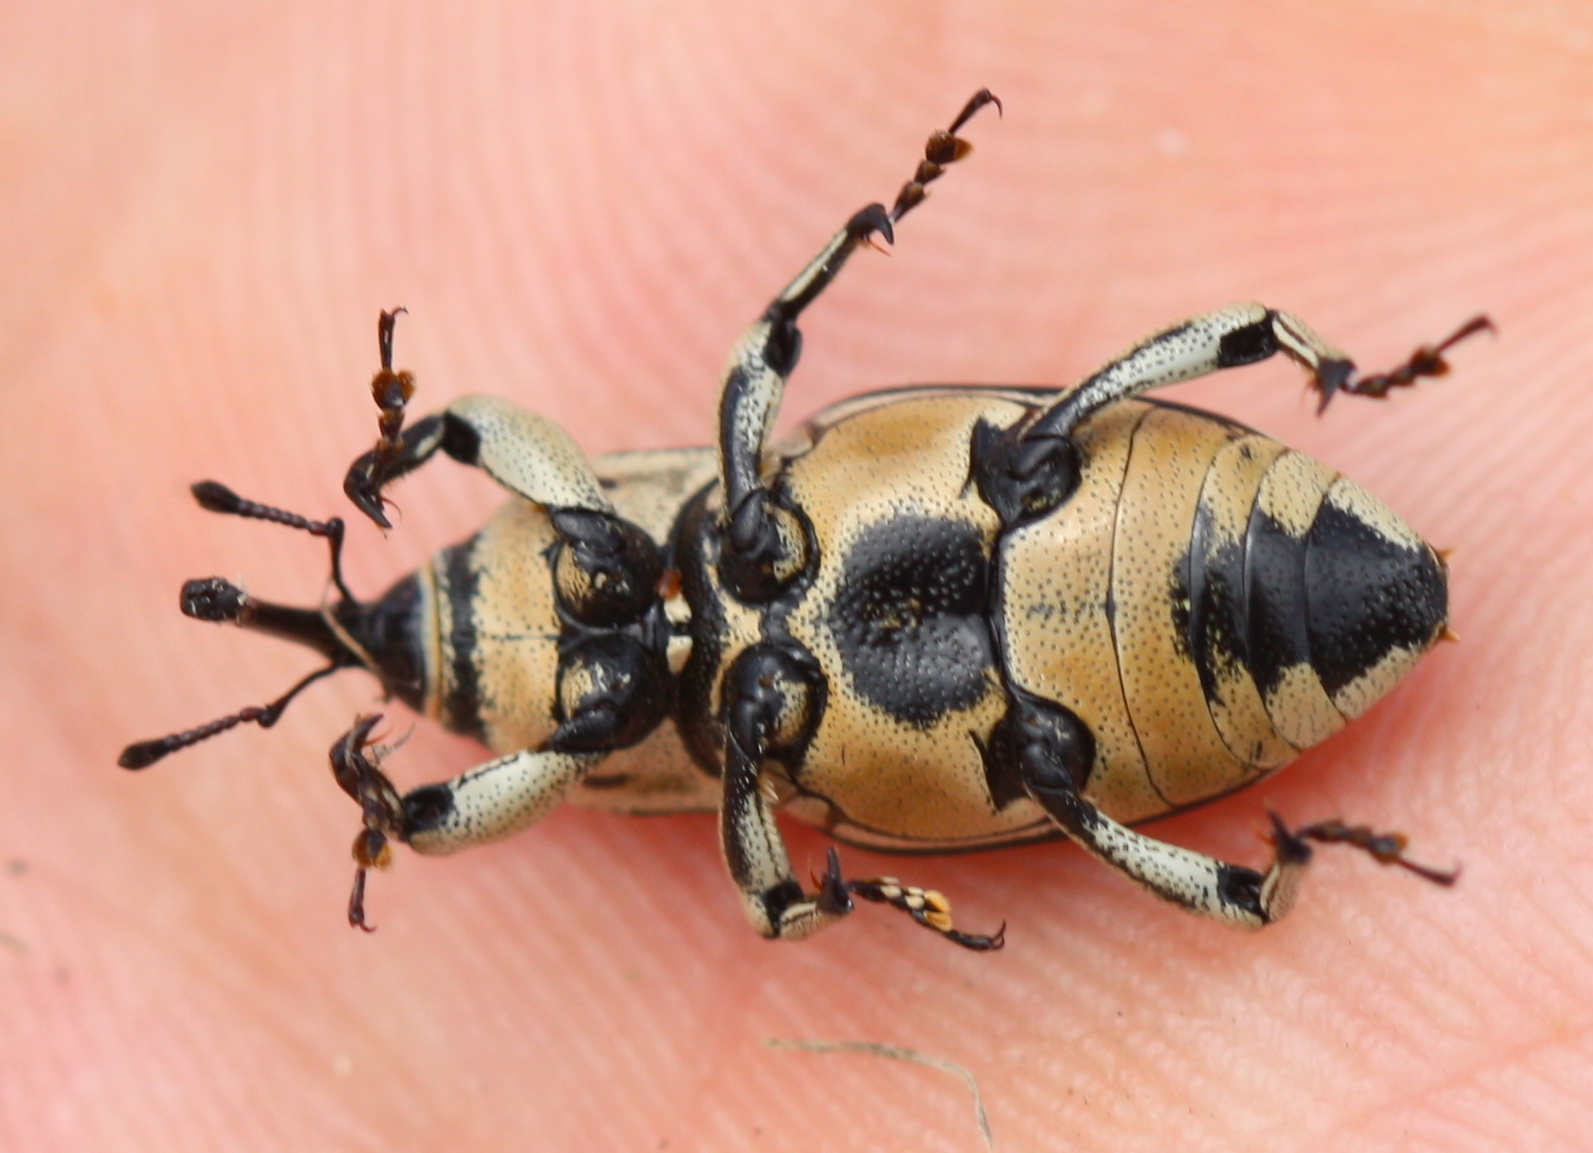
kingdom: Animalia
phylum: Arthropoda
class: Insecta
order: Coleoptera
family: Dryophthoridae
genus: Sphenophorus
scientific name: Sphenophorus aequalis
